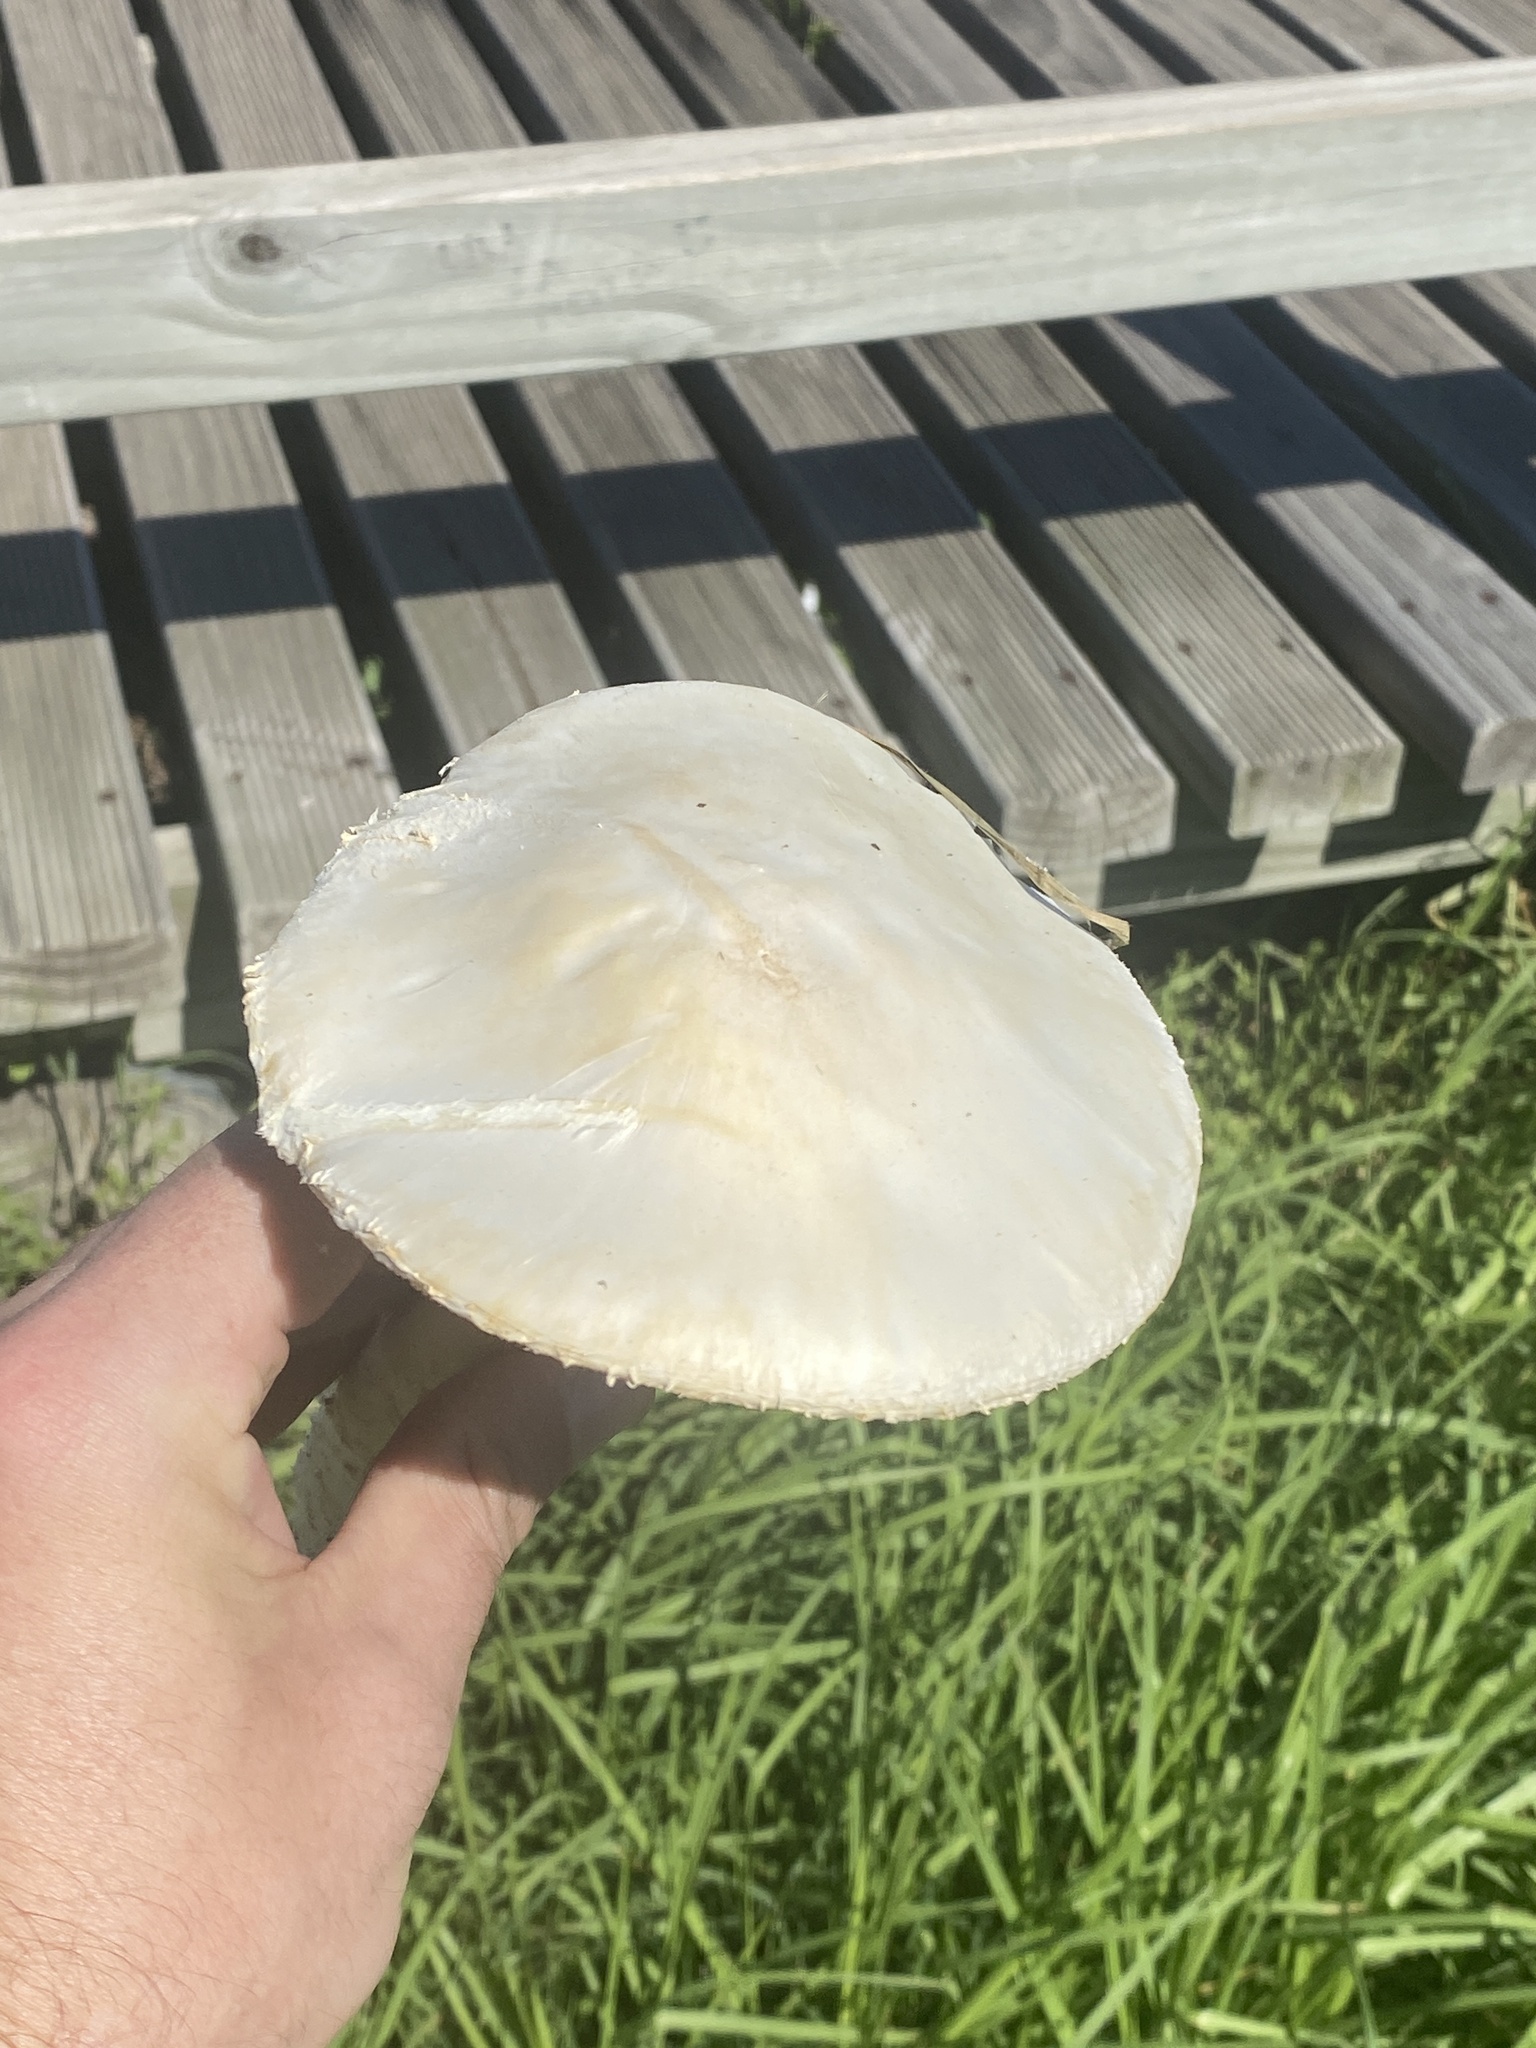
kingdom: Fungi
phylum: Basidiomycota
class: Agaricomycetes
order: Agaricales
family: Amanitaceae
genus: Aspidella
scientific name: Aspidella foetens
